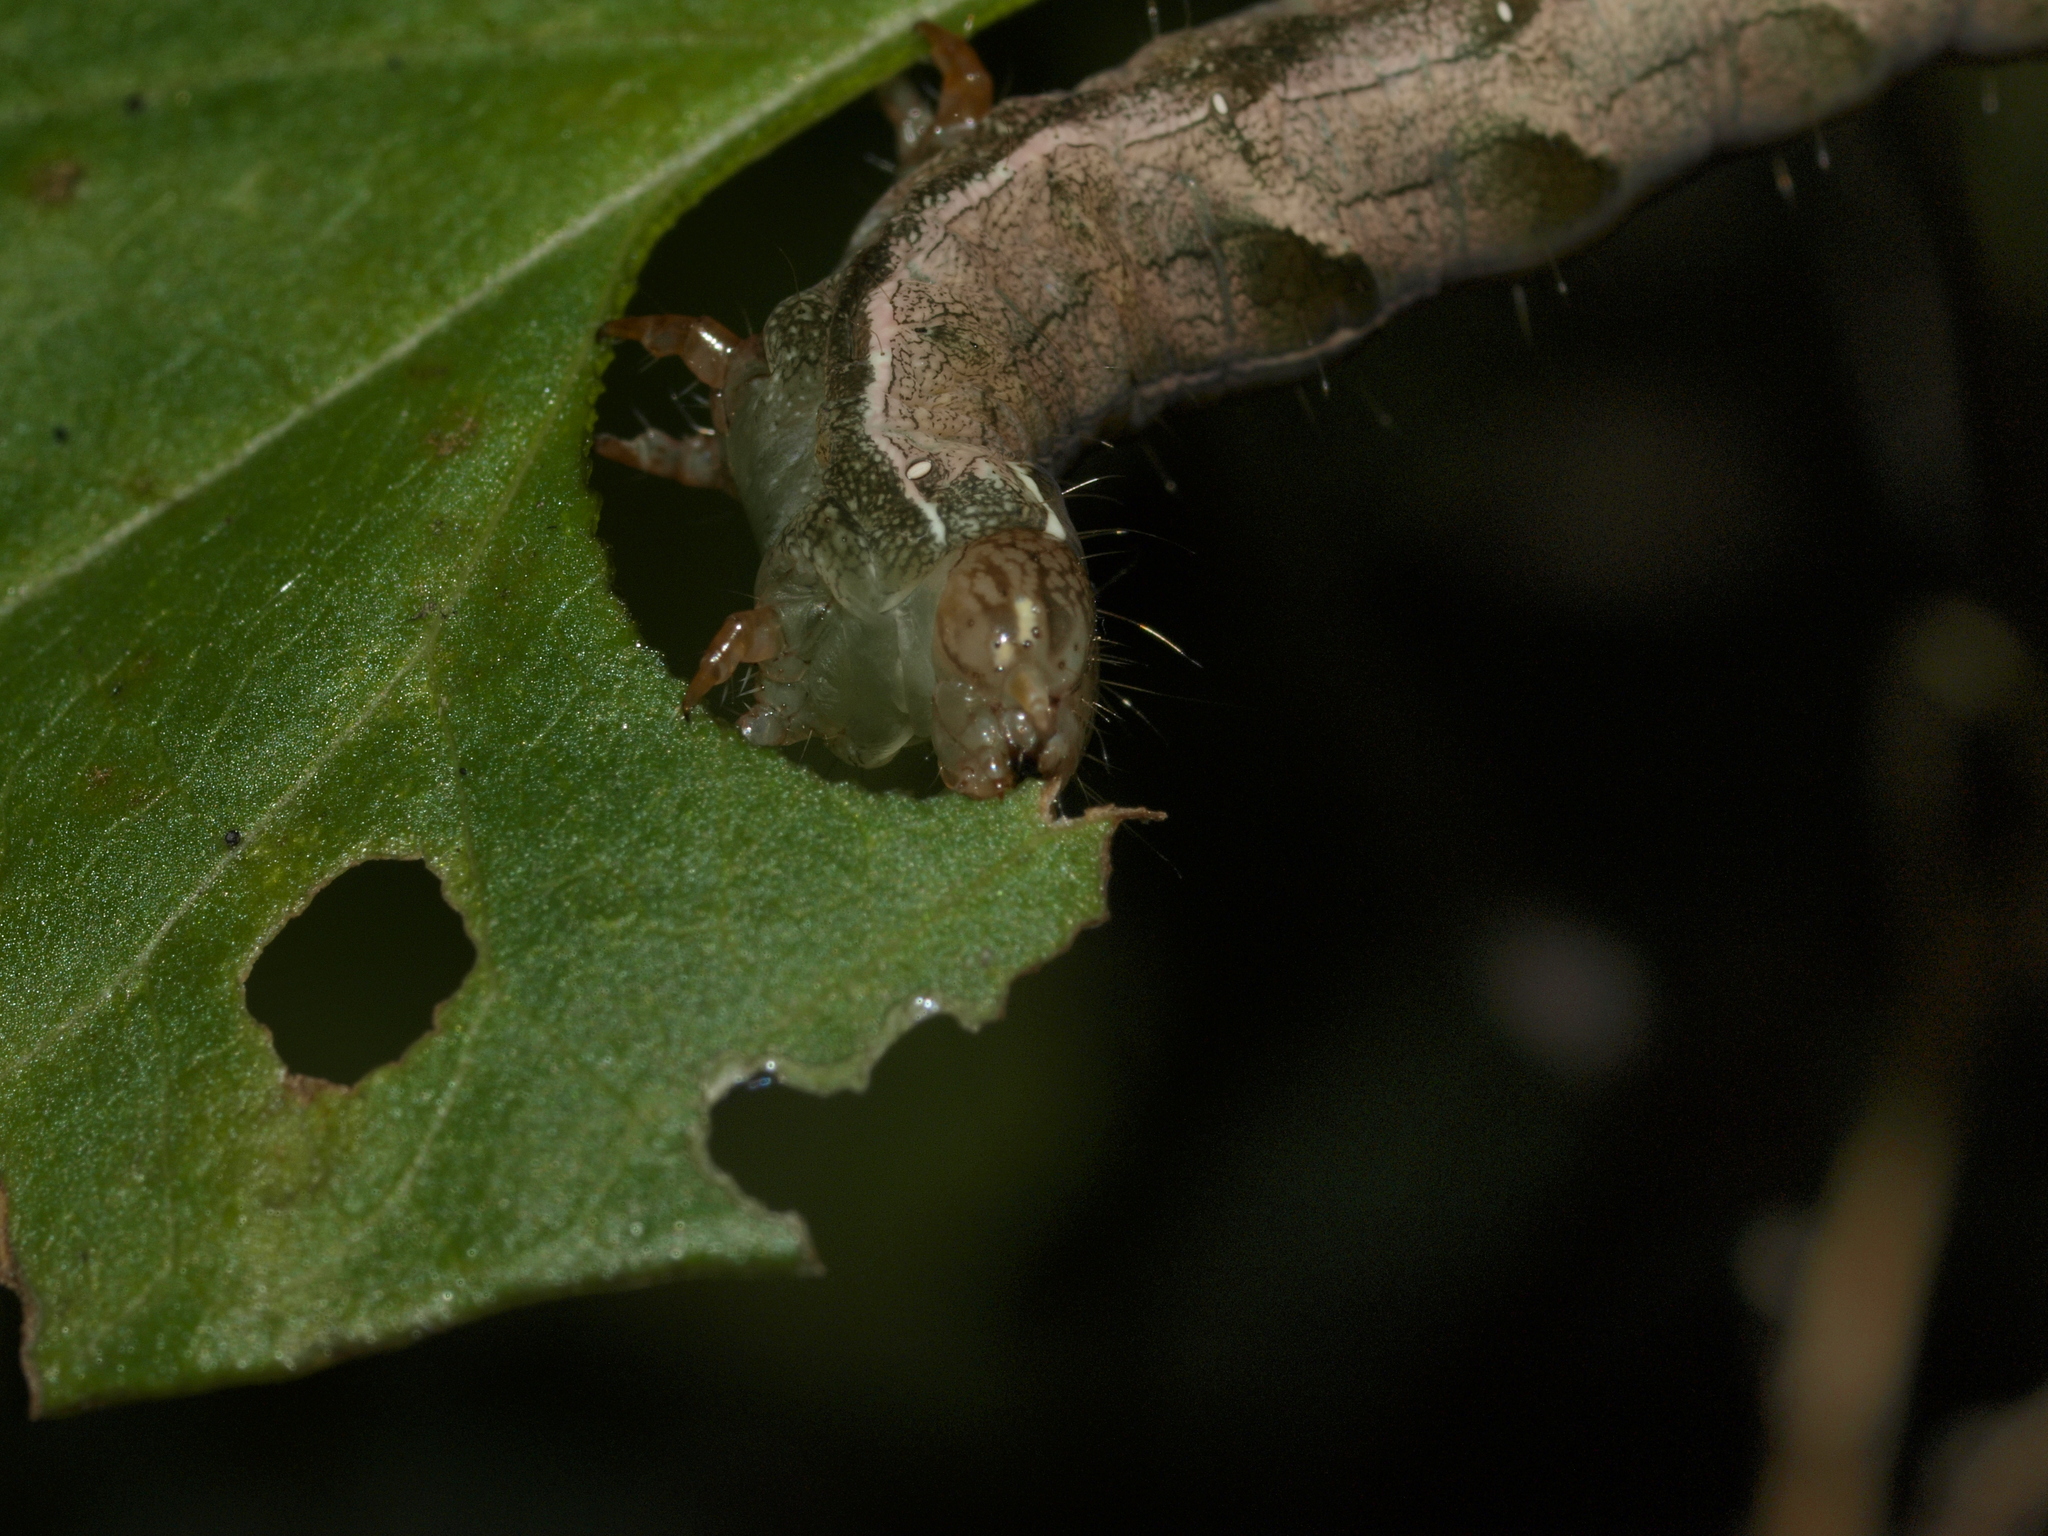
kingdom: Animalia
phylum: Arthropoda
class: Insecta
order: Lepidoptera
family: Noctuidae
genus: Melanchra
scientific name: Melanchra persicariae
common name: Dot moth
